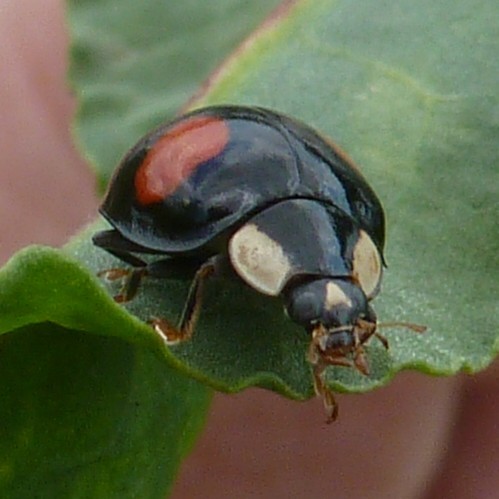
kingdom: Animalia
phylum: Arthropoda
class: Insecta
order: Coleoptera
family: Coccinellidae
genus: Harmonia
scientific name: Harmonia axyridis
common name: Harlequin ladybird
